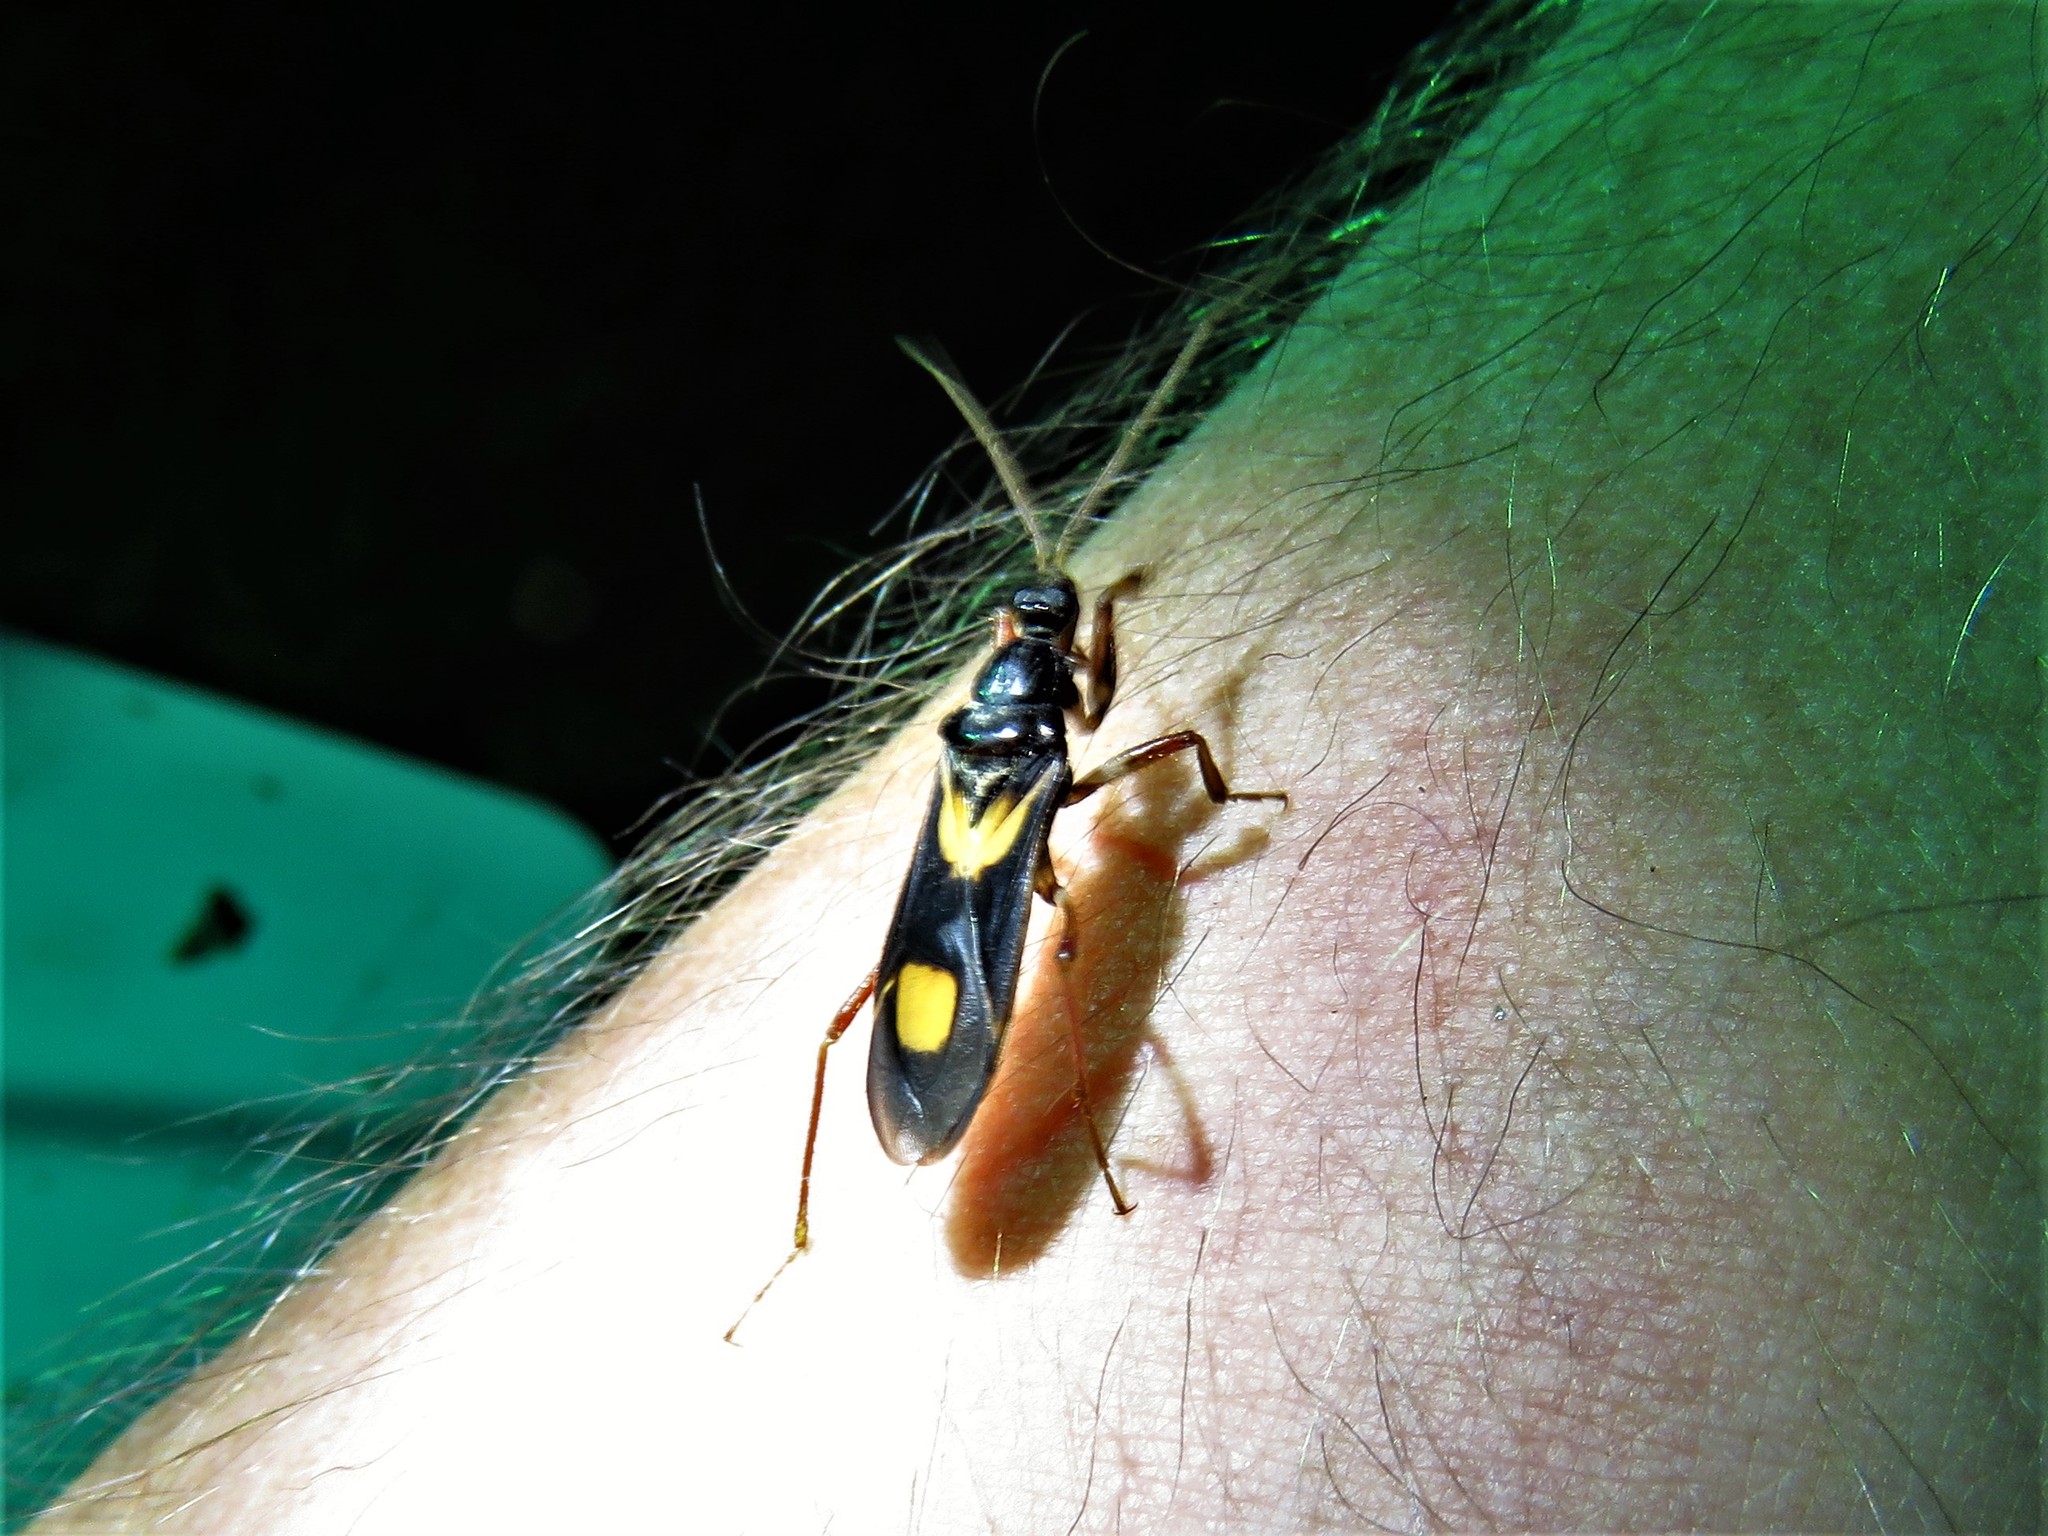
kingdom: Animalia
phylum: Arthropoda
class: Insecta
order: Hemiptera
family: Reduviidae
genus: Rasahus
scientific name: Rasahus hamatus
